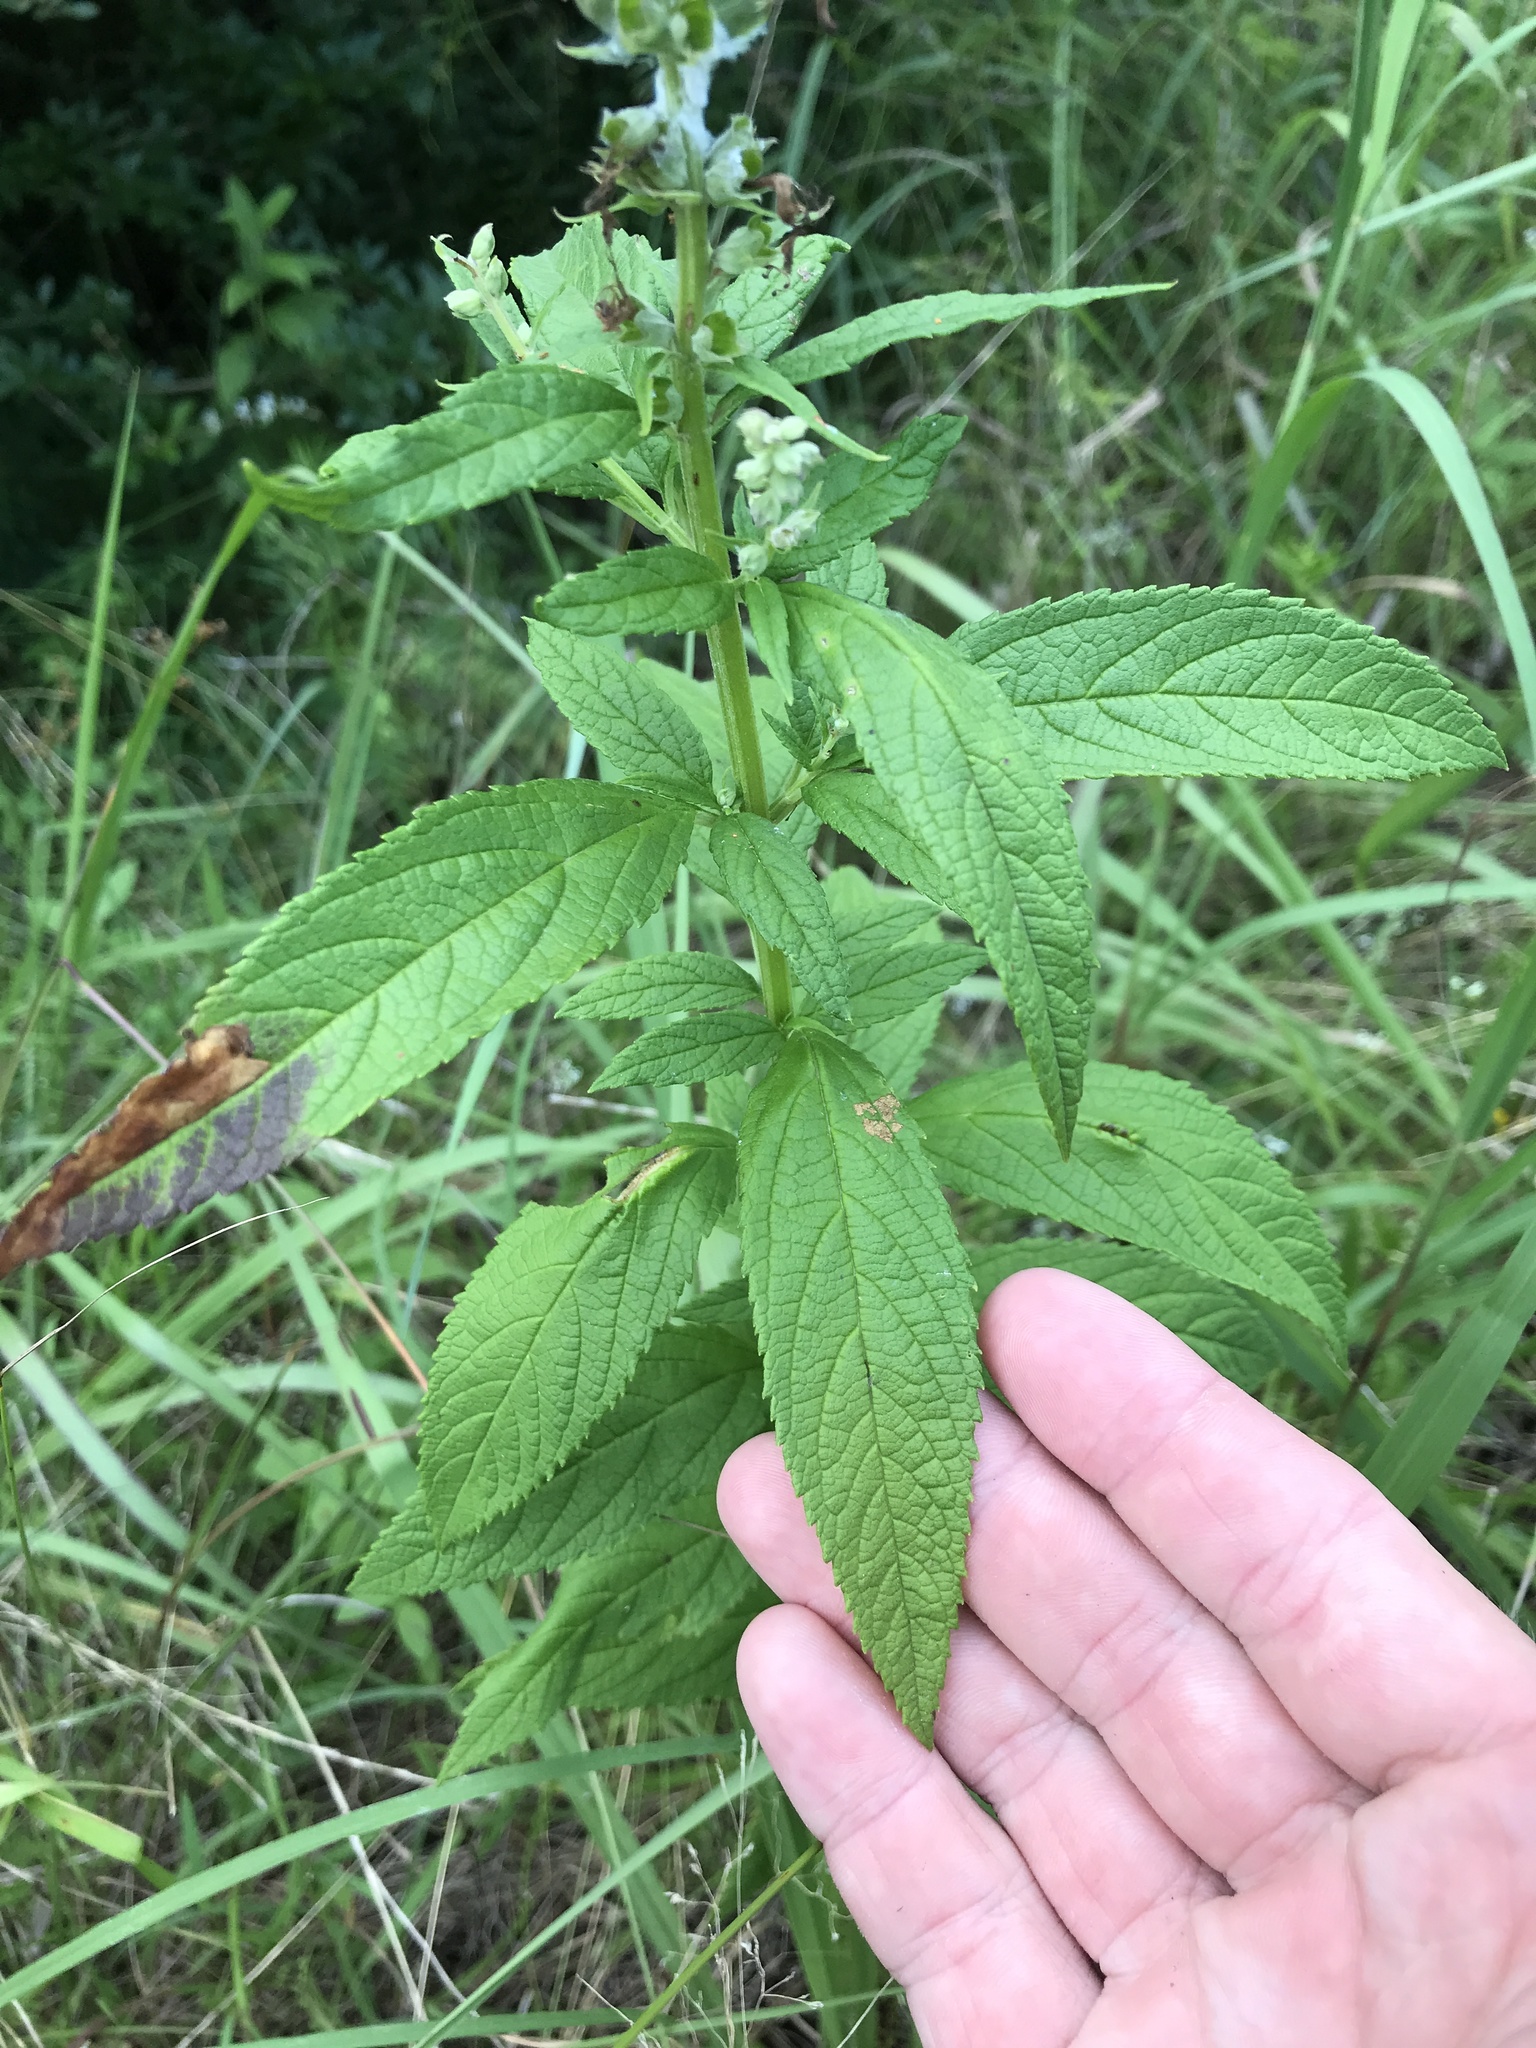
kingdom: Plantae
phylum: Tracheophyta
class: Magnoliopsida
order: Lamiales
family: Lamiaceae
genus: Teucrium
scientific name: Teucrium canadense
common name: American germander
